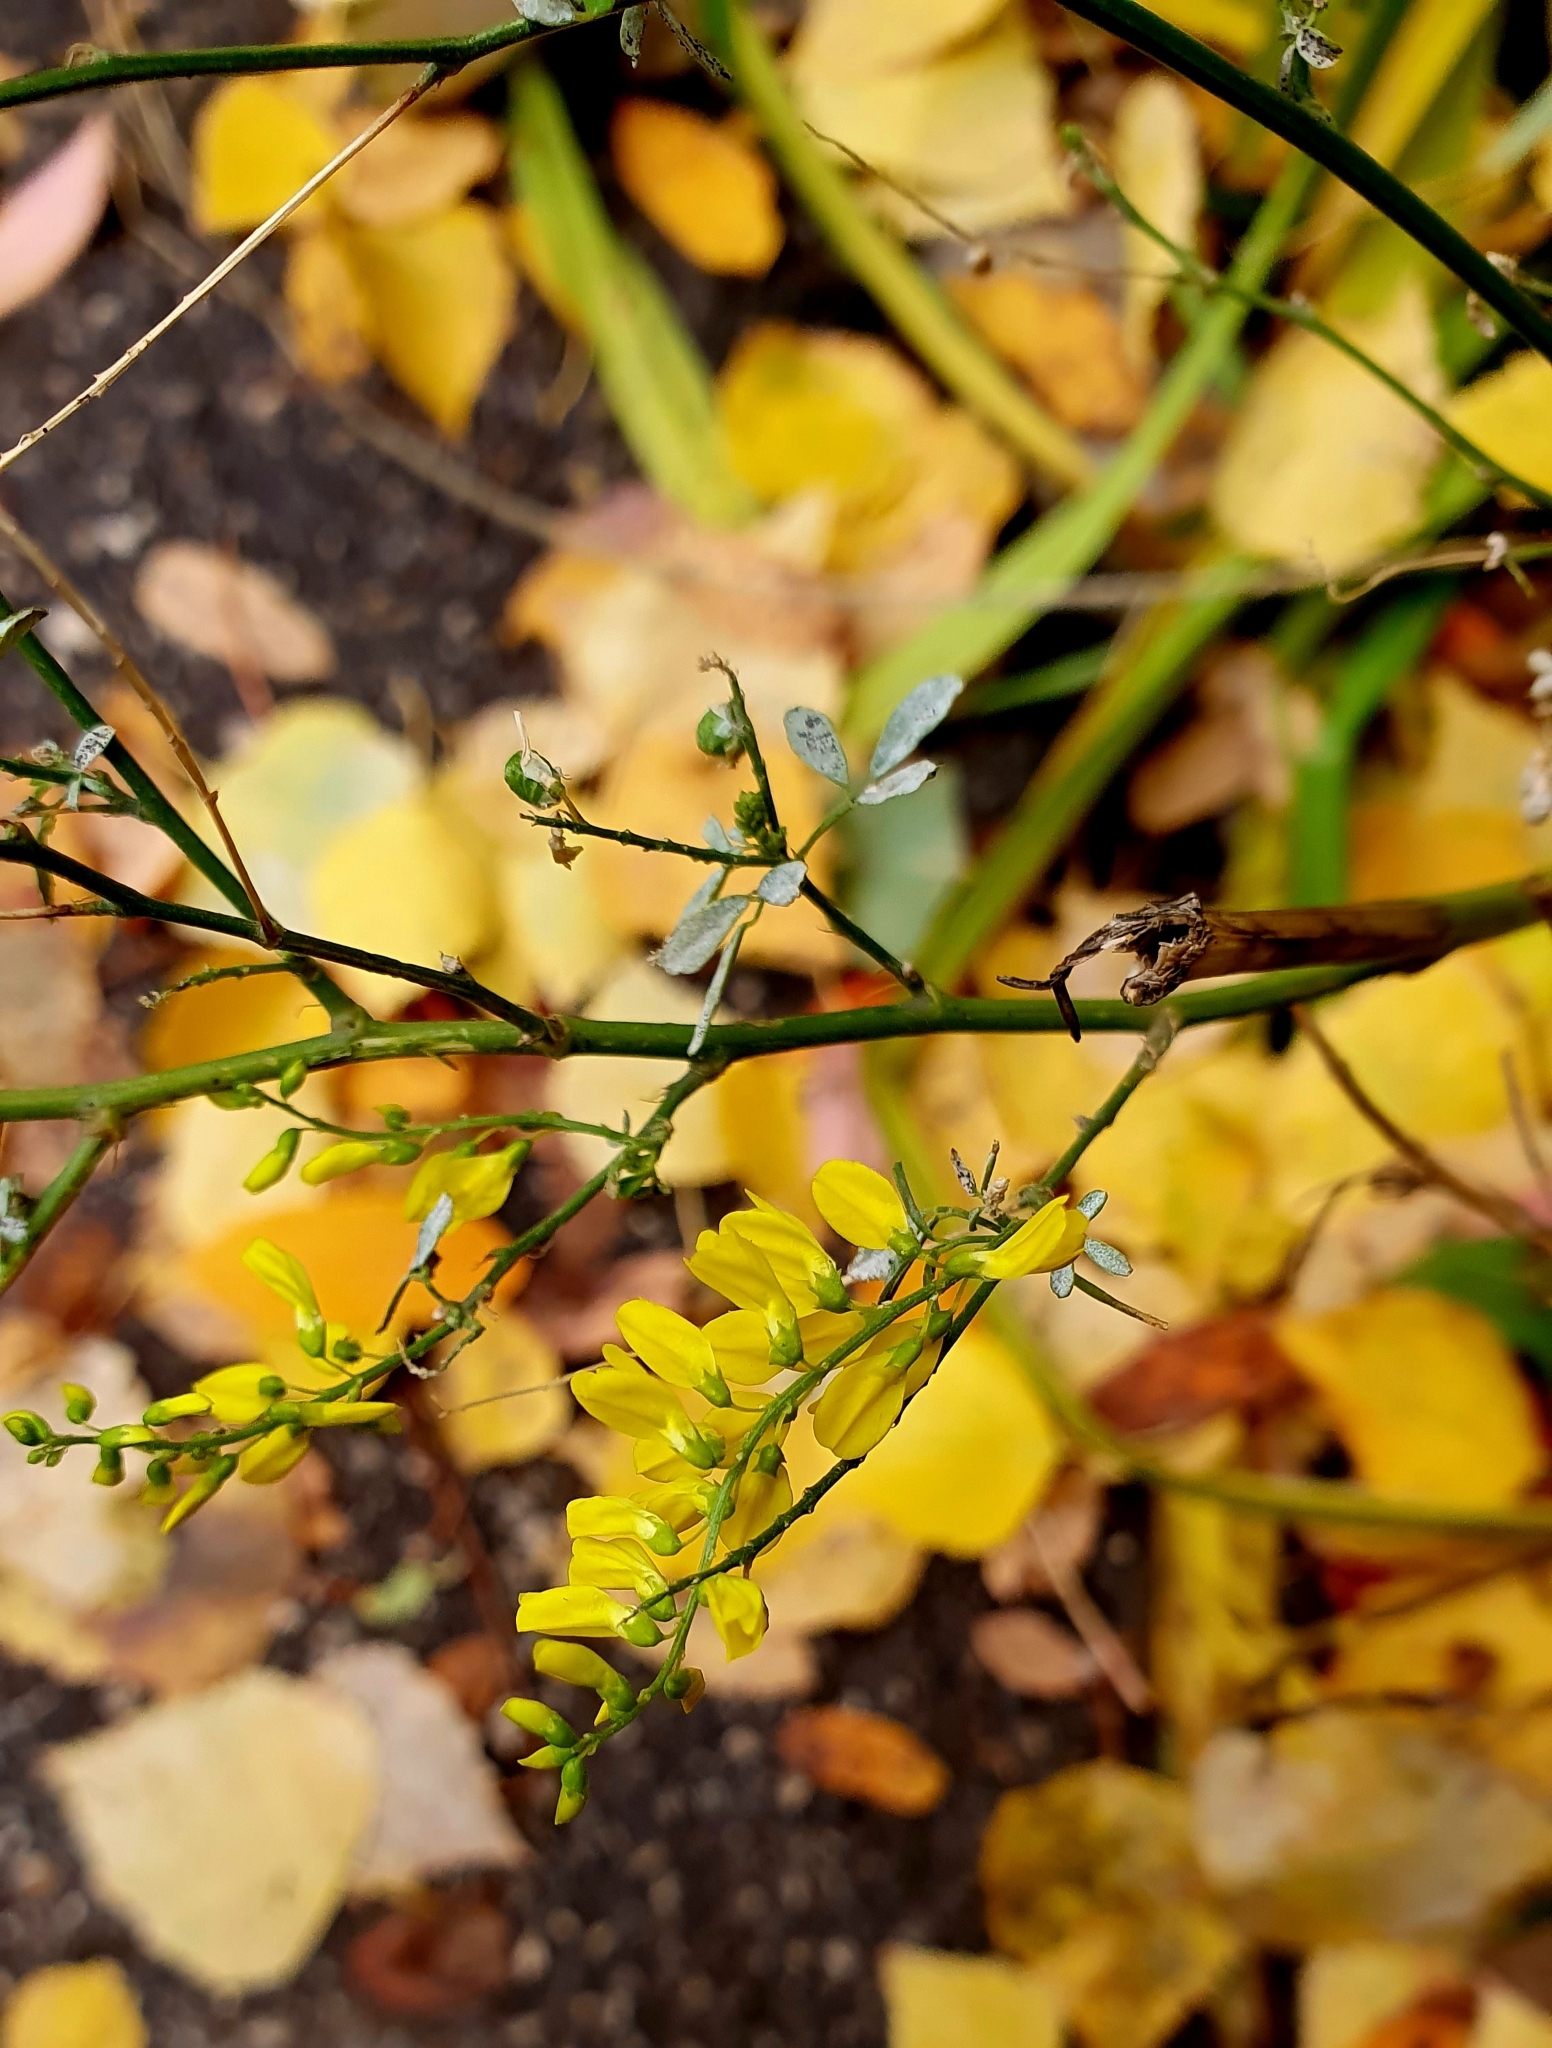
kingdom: Plantae
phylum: Tracheophyta
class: Magnoliopsida
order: Fabales
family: Fabaceae
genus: Melilotus
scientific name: Melilotus officinalis
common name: Sweetclover
